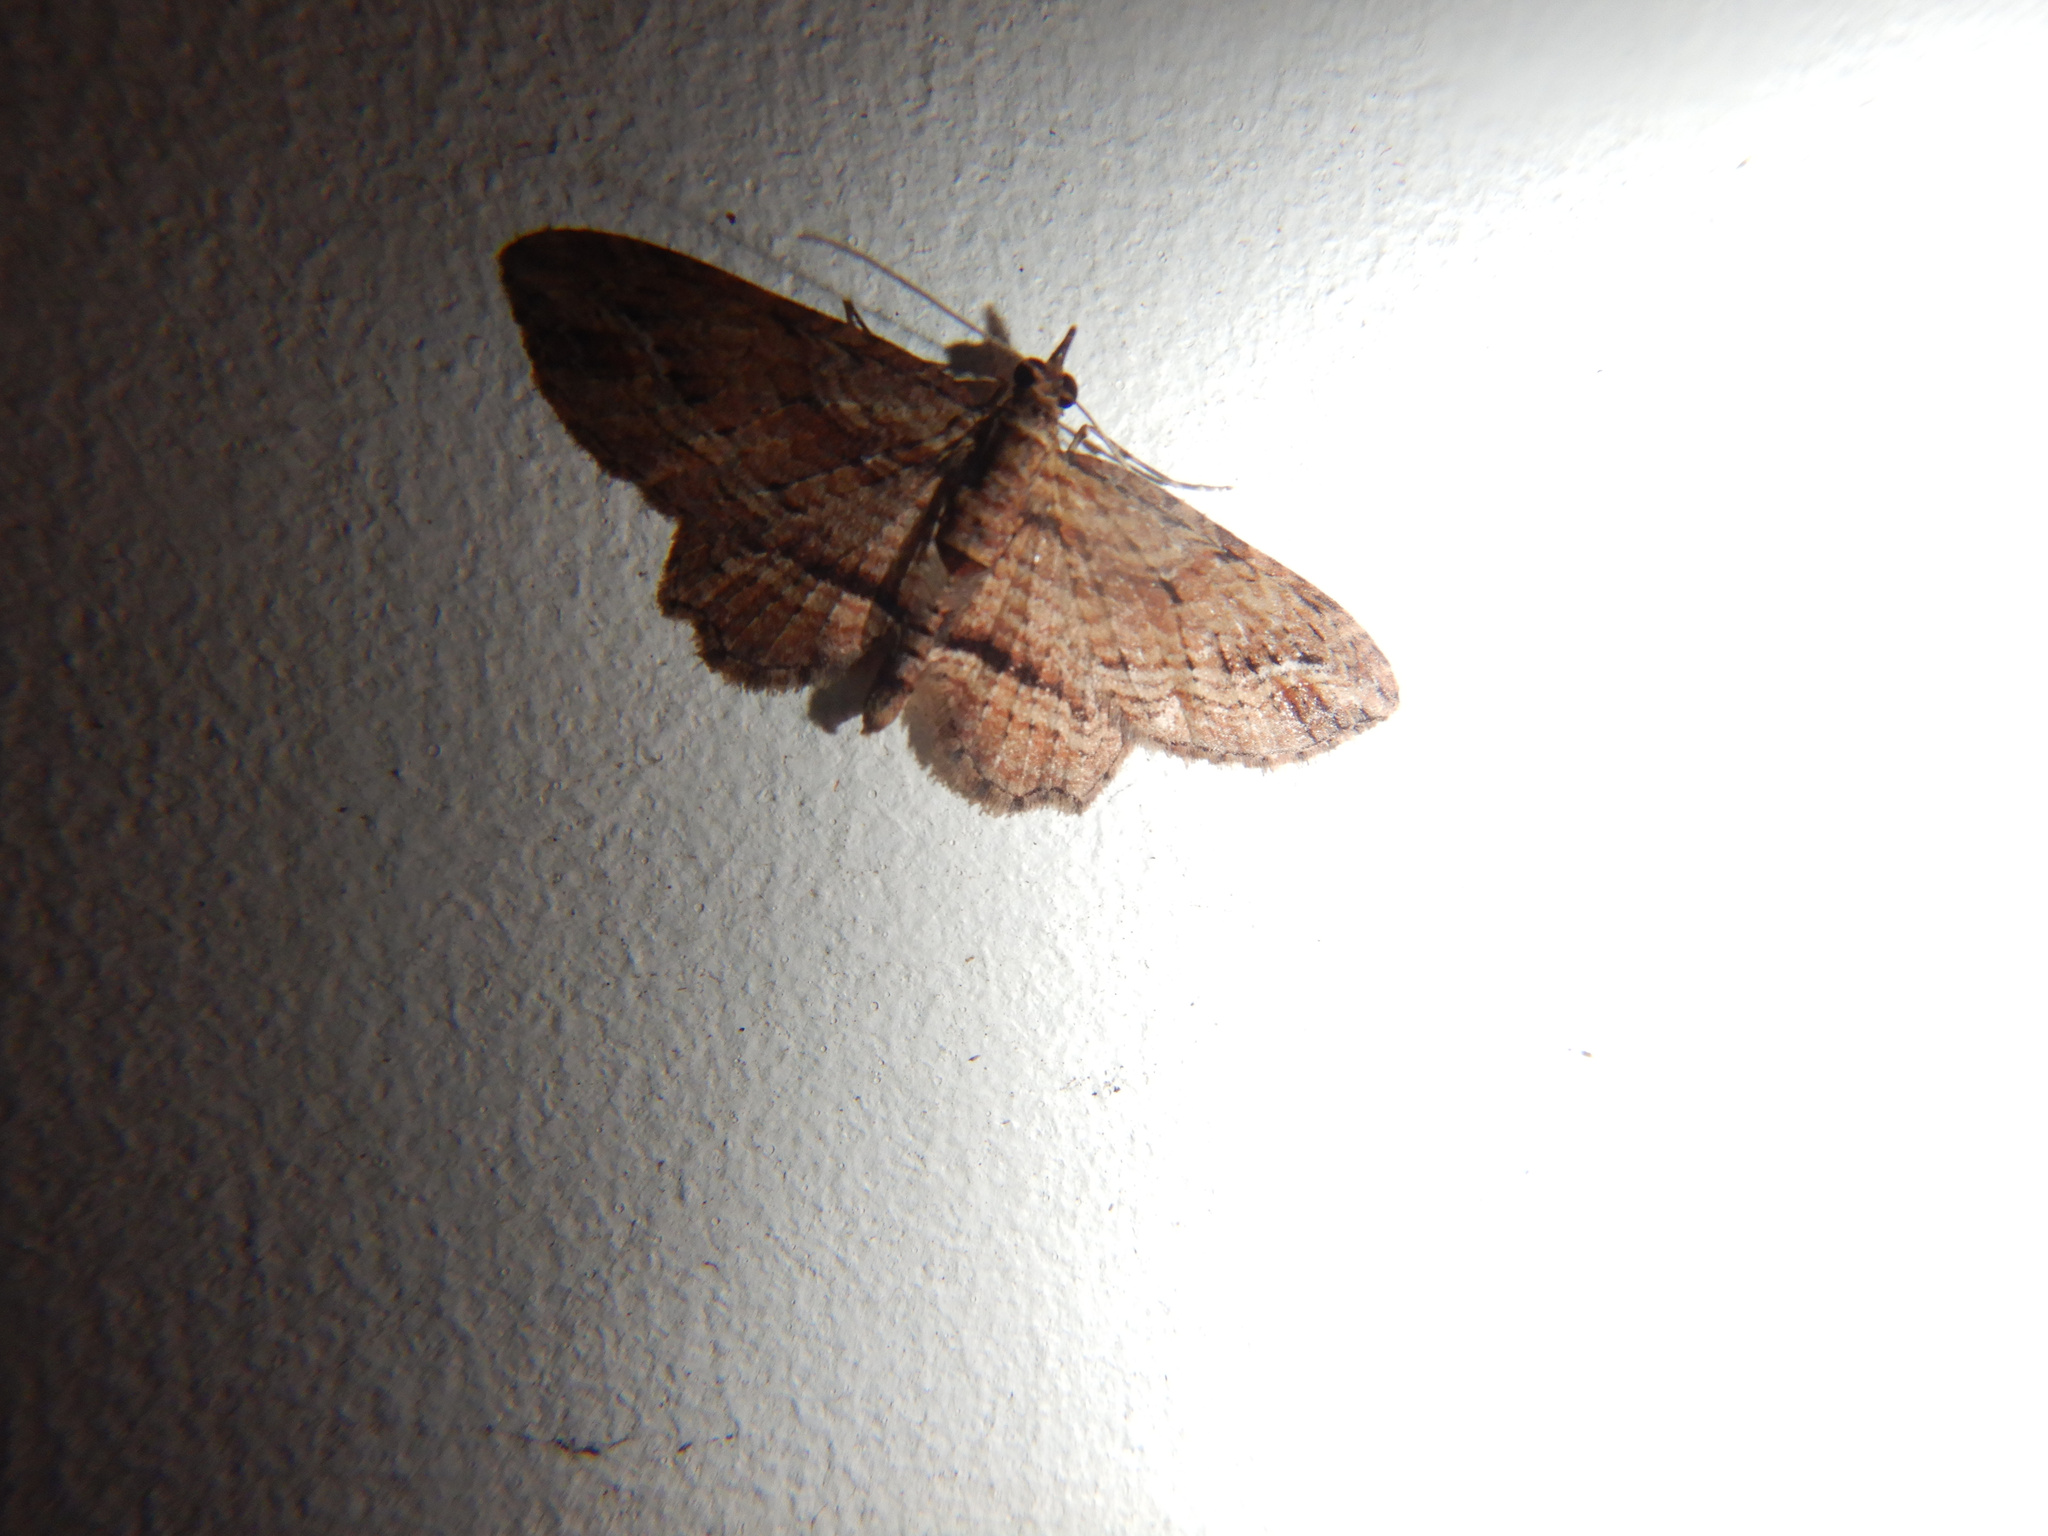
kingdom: Animalia
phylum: Arthropoda
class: Insecta
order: Lepidoptera
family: Geometridae
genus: Chloroclystis
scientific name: Chloroclystis filata
